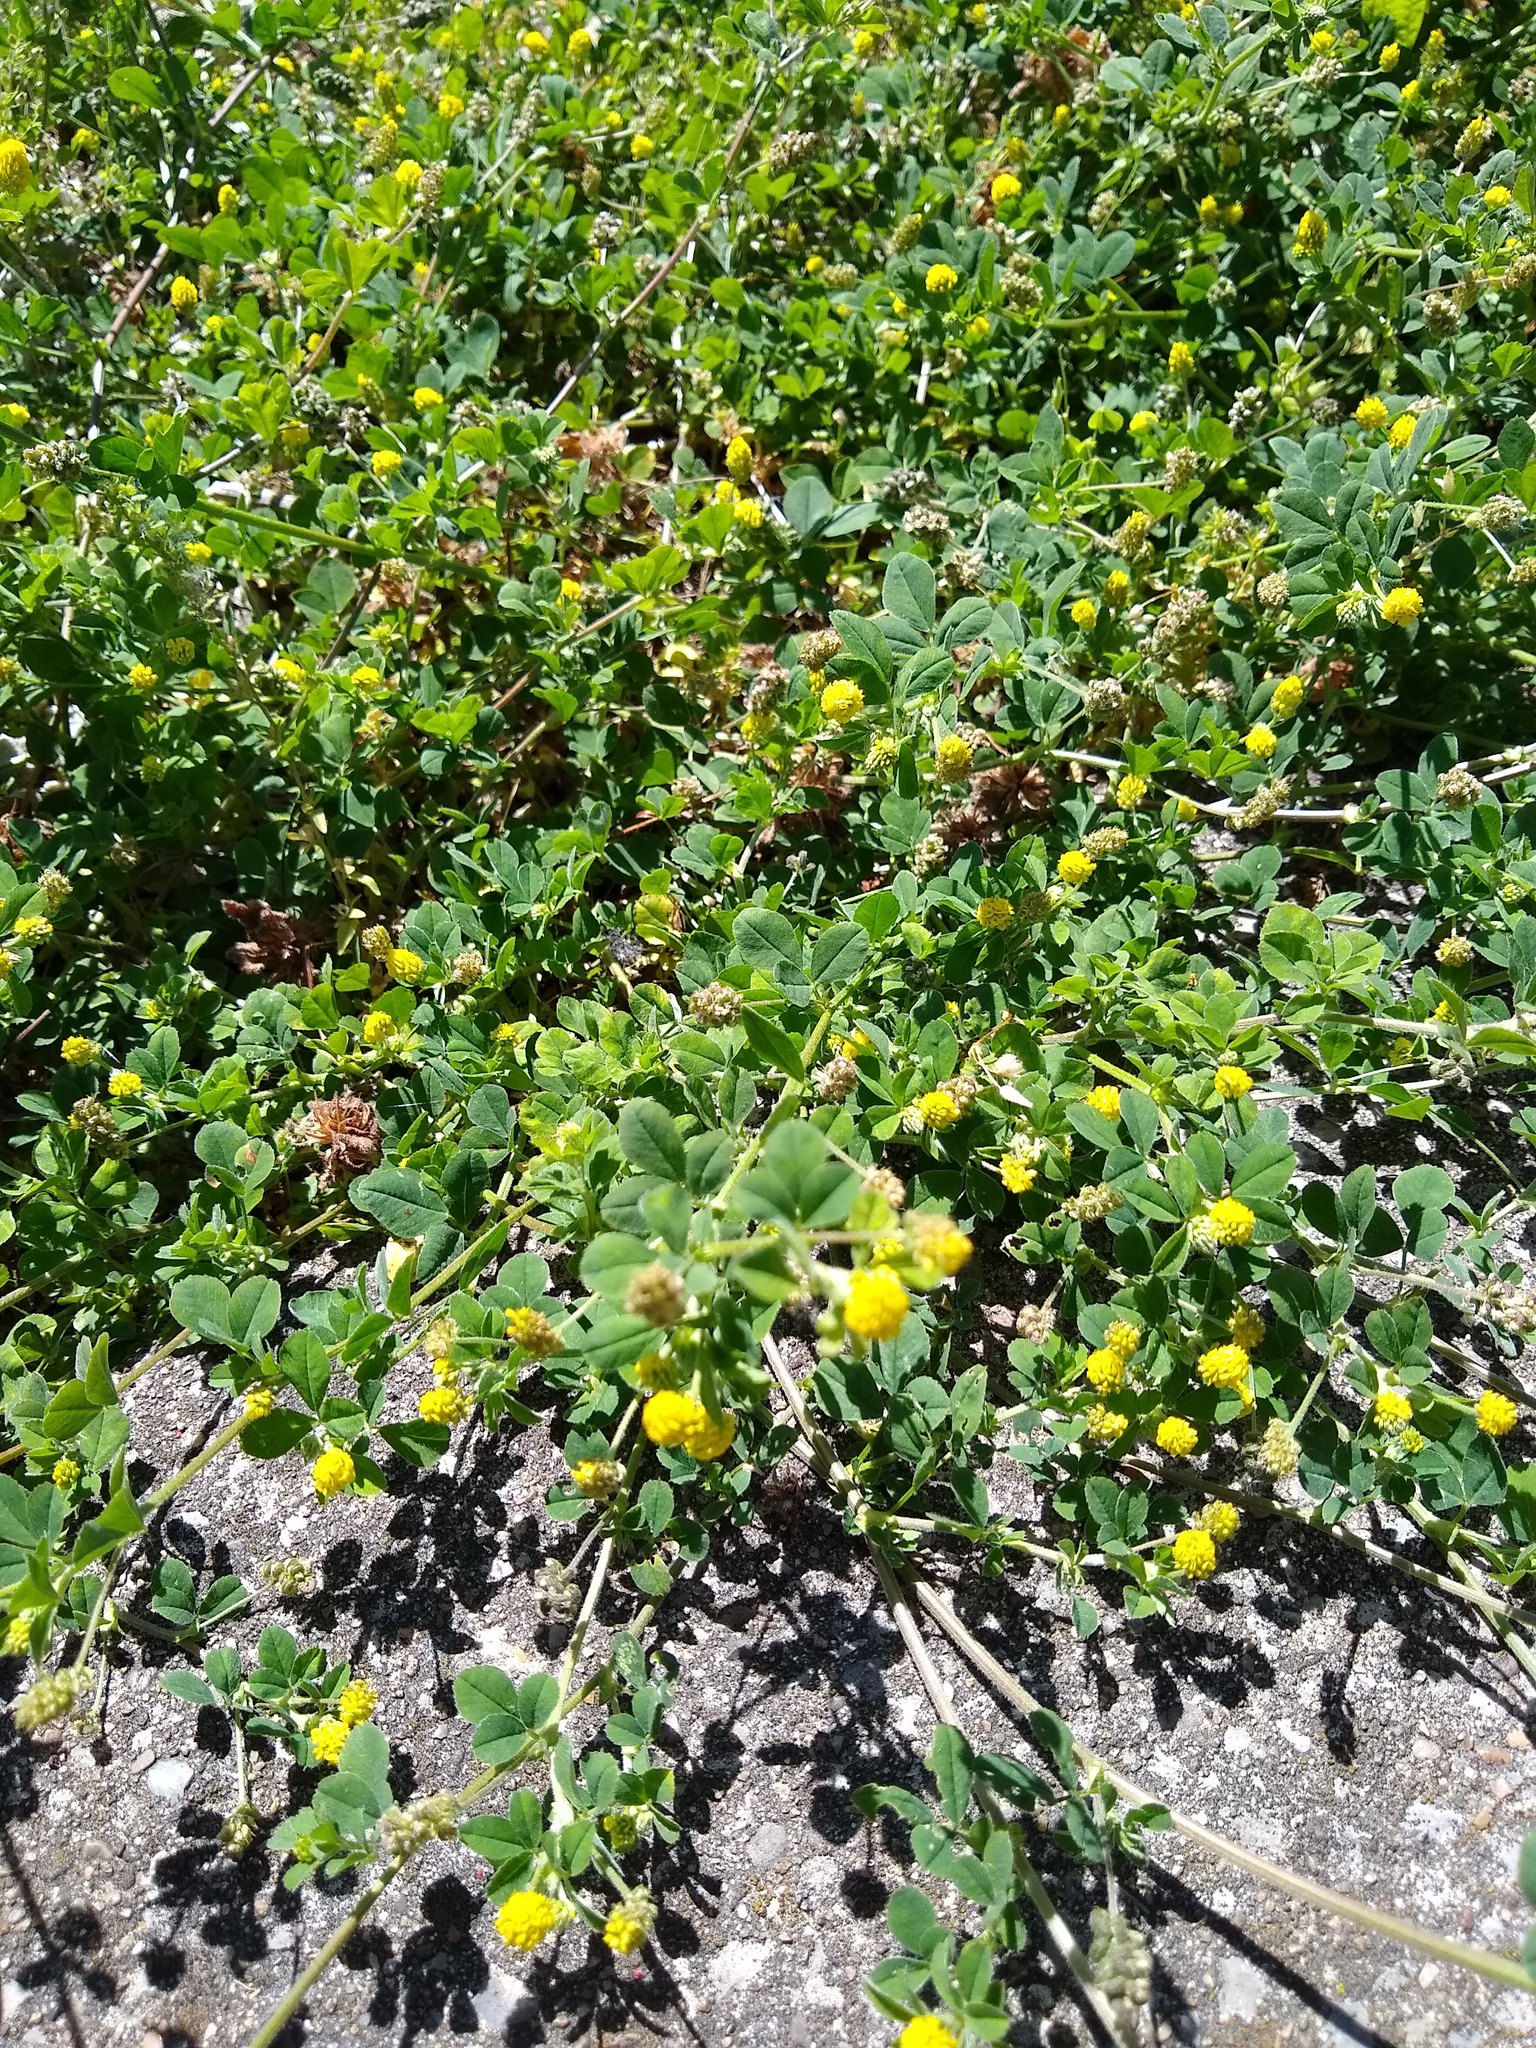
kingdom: Plantae
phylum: Tracheophyta
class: Magnoliopsida
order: Fabales
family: Fabaceae
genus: Medicago
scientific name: Medicago lupulina
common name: Black medick
